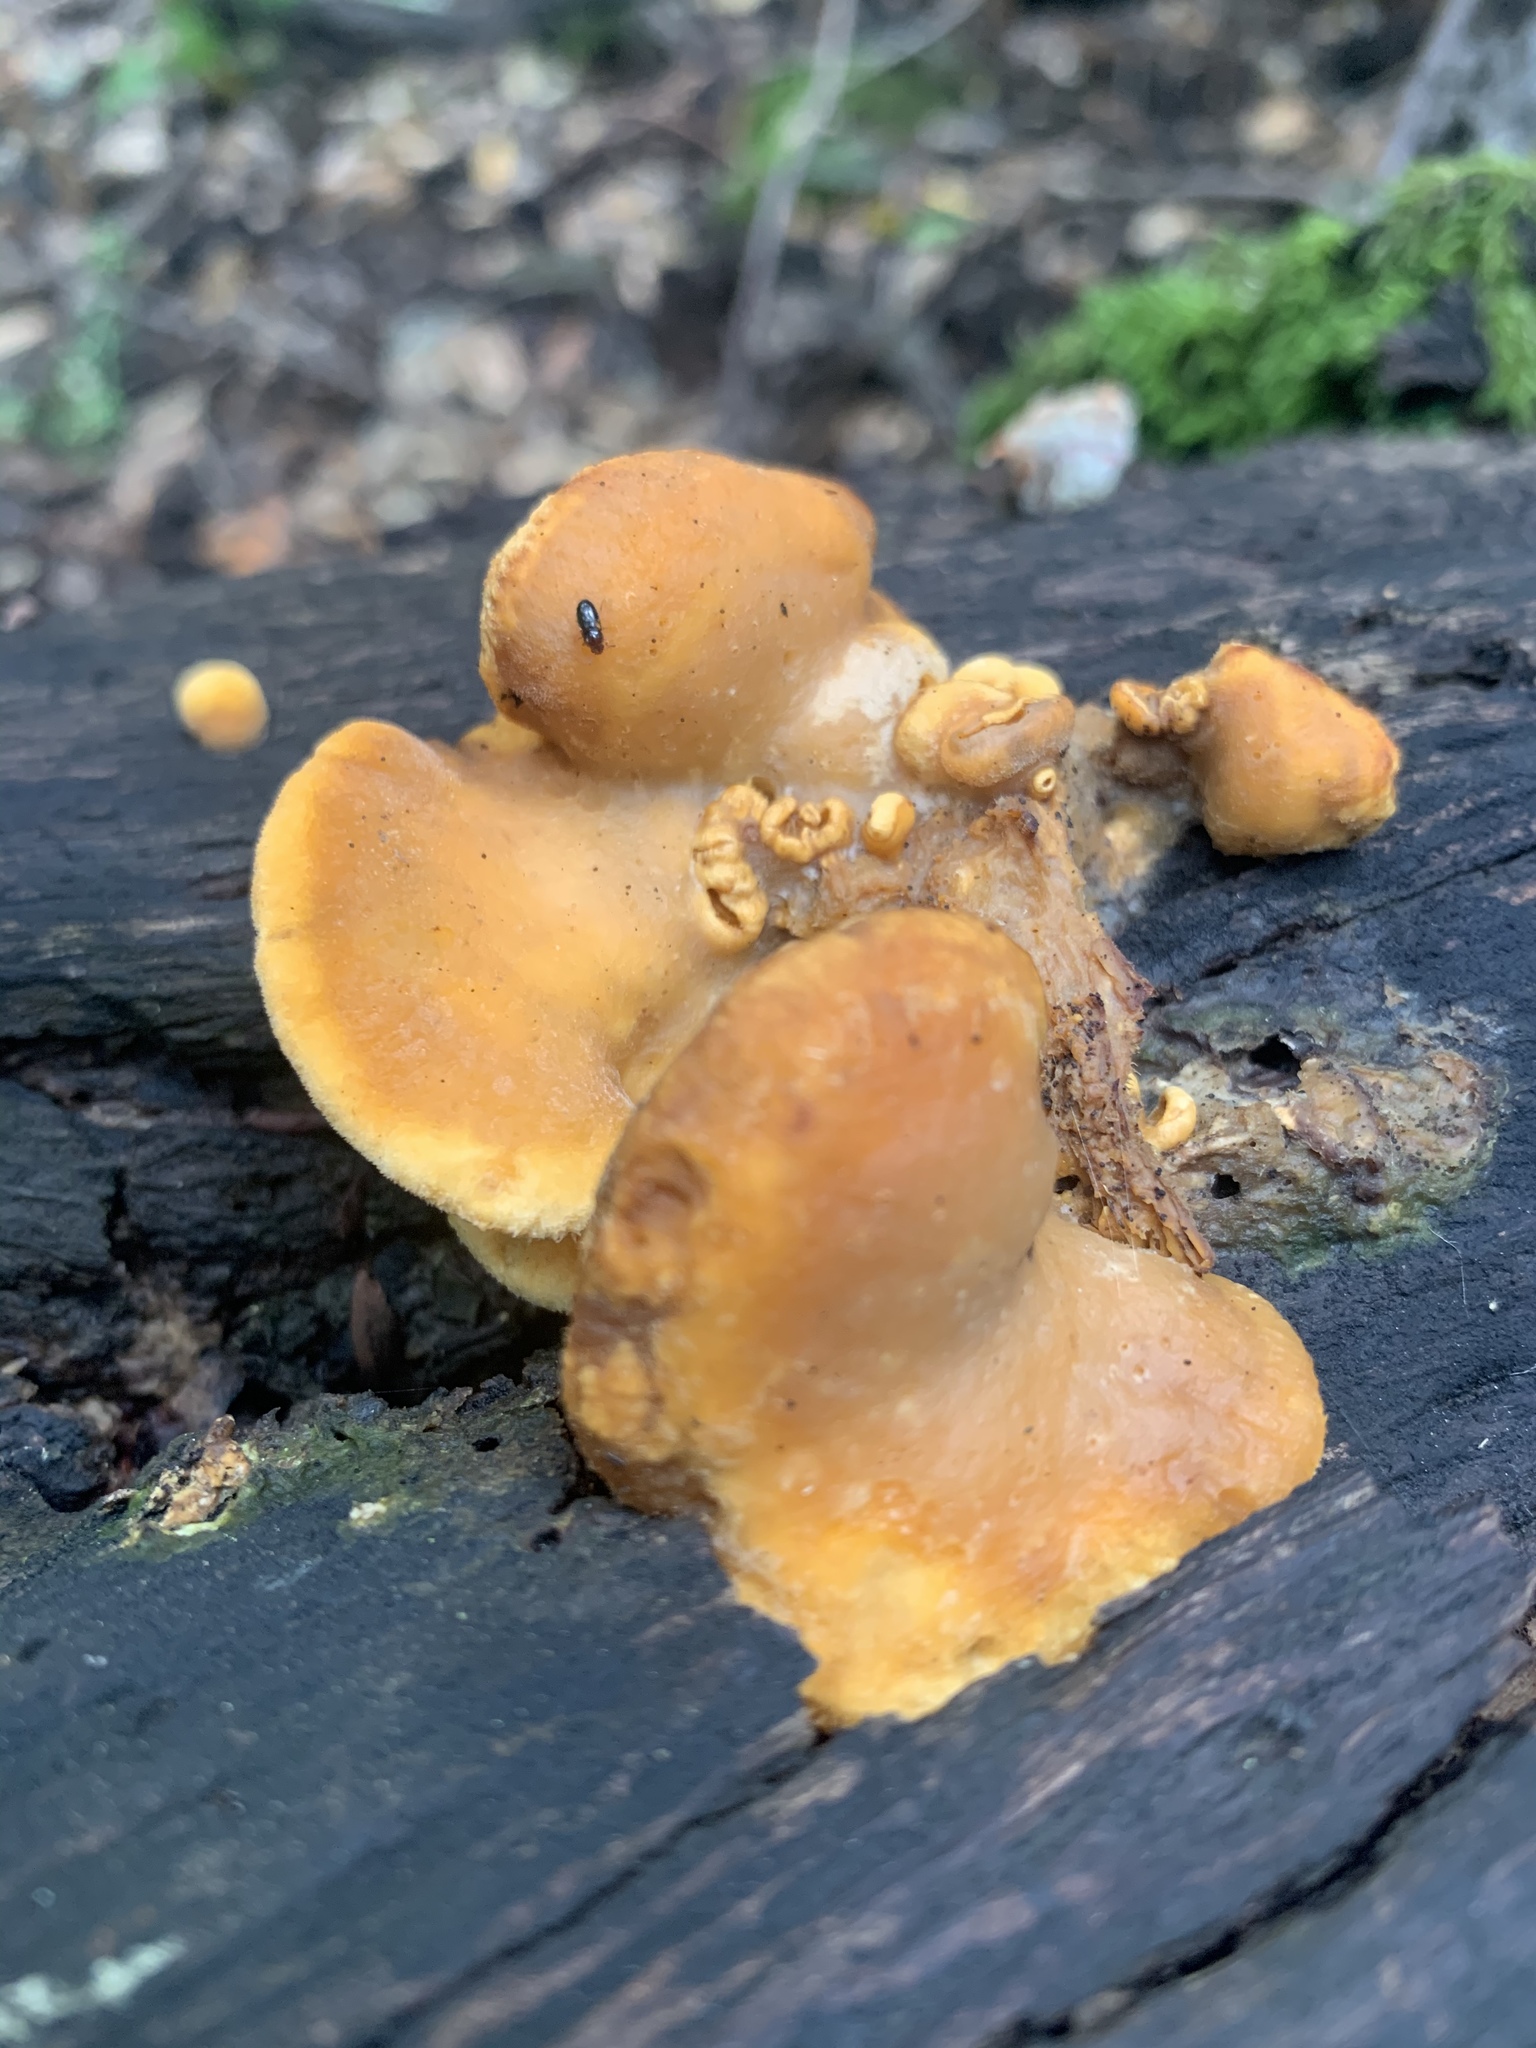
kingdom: Fungi
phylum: Basidiomycota
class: Agaricomycetes
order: Agaricales
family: Phyllotopsidaceae
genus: Phyllotopsis
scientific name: Phyllotopsis nidulans
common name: Orange mock oyster
